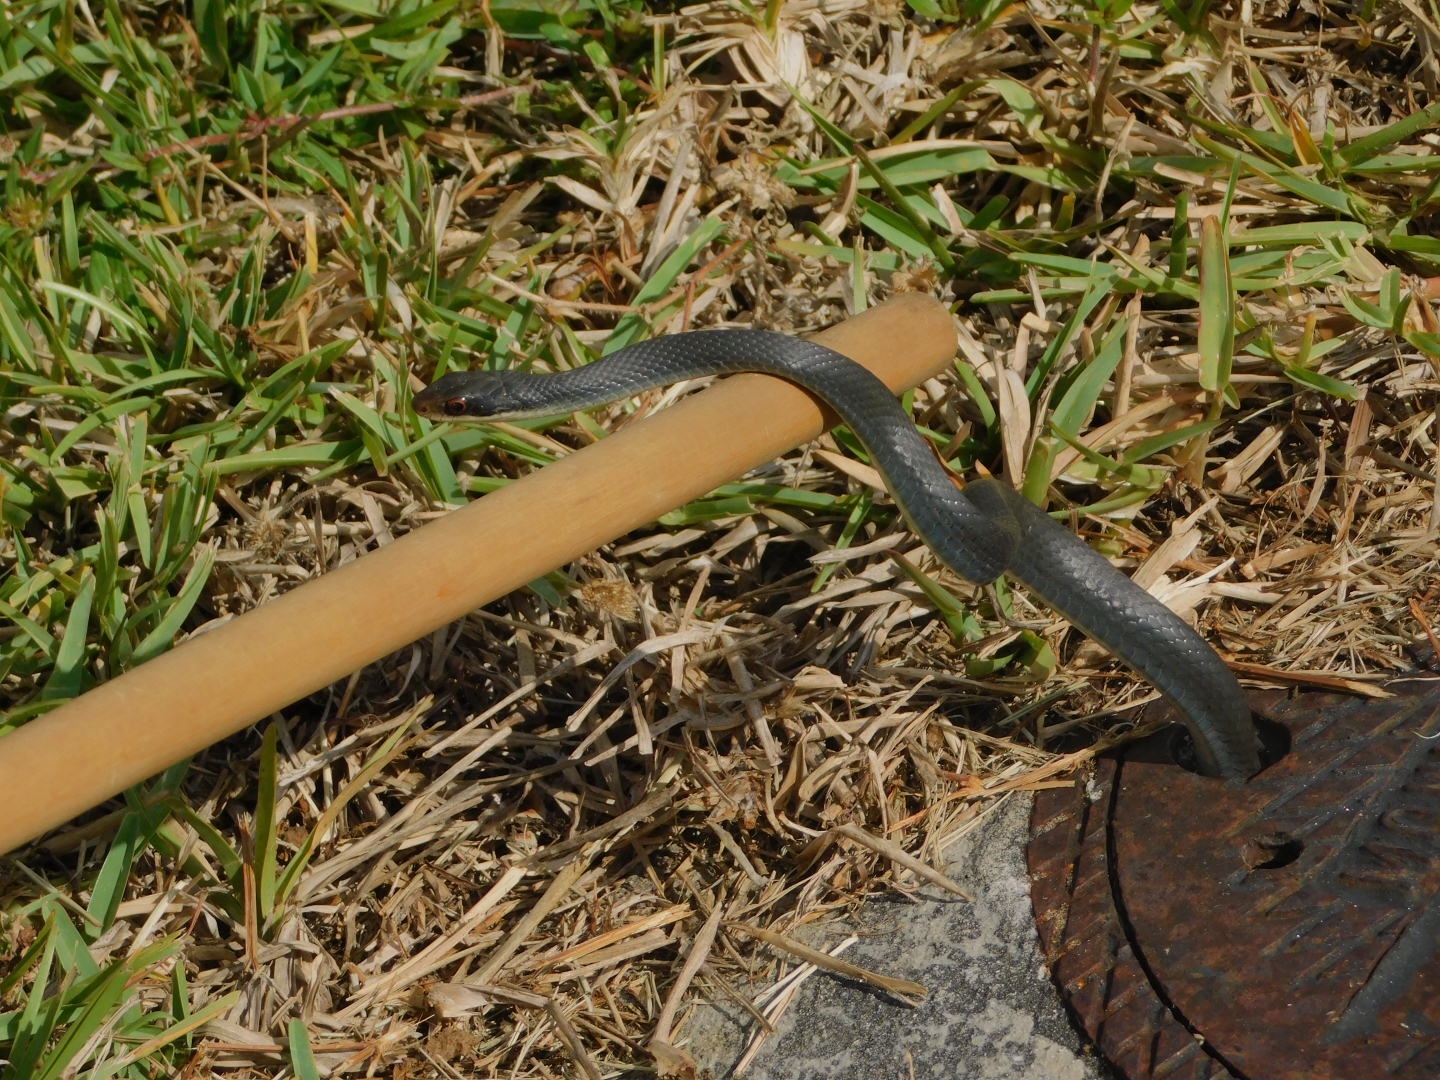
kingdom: Animalia
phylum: Chordata
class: Squamata
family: Colubridae
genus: Coluber
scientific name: Coluber constrictor
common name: Eastern racer
